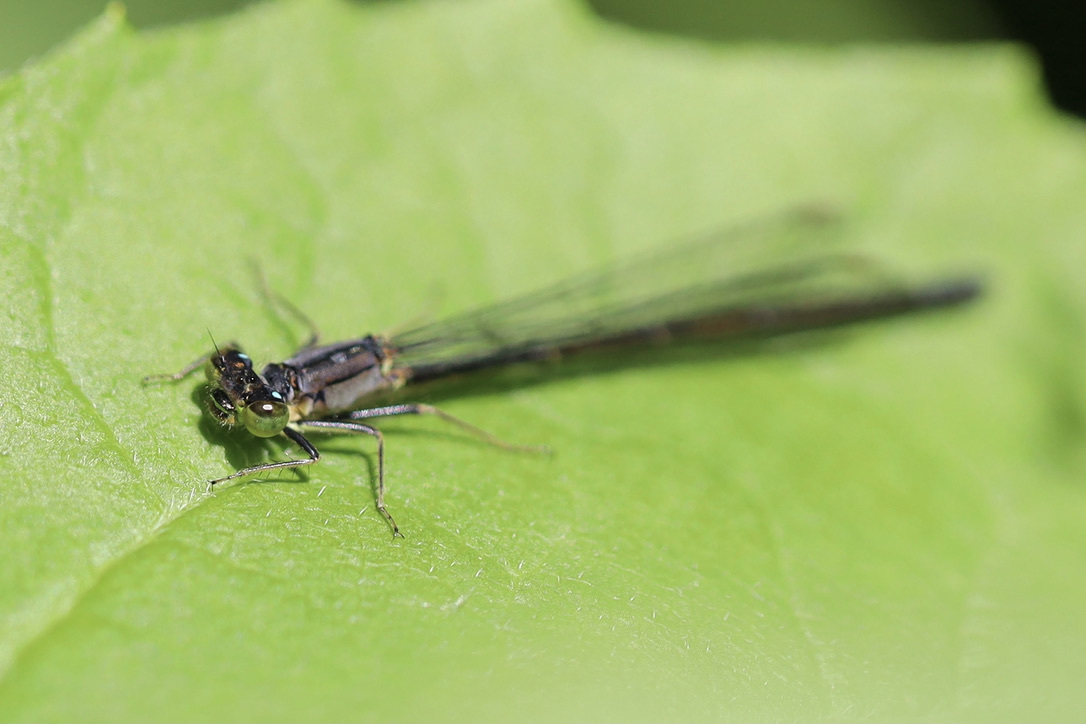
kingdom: Animalia
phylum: Arthropoda
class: Insecta
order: Odonata
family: Coenagrionidae
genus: Ischnura
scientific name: Ischnura cervula
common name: Pacific forktail
